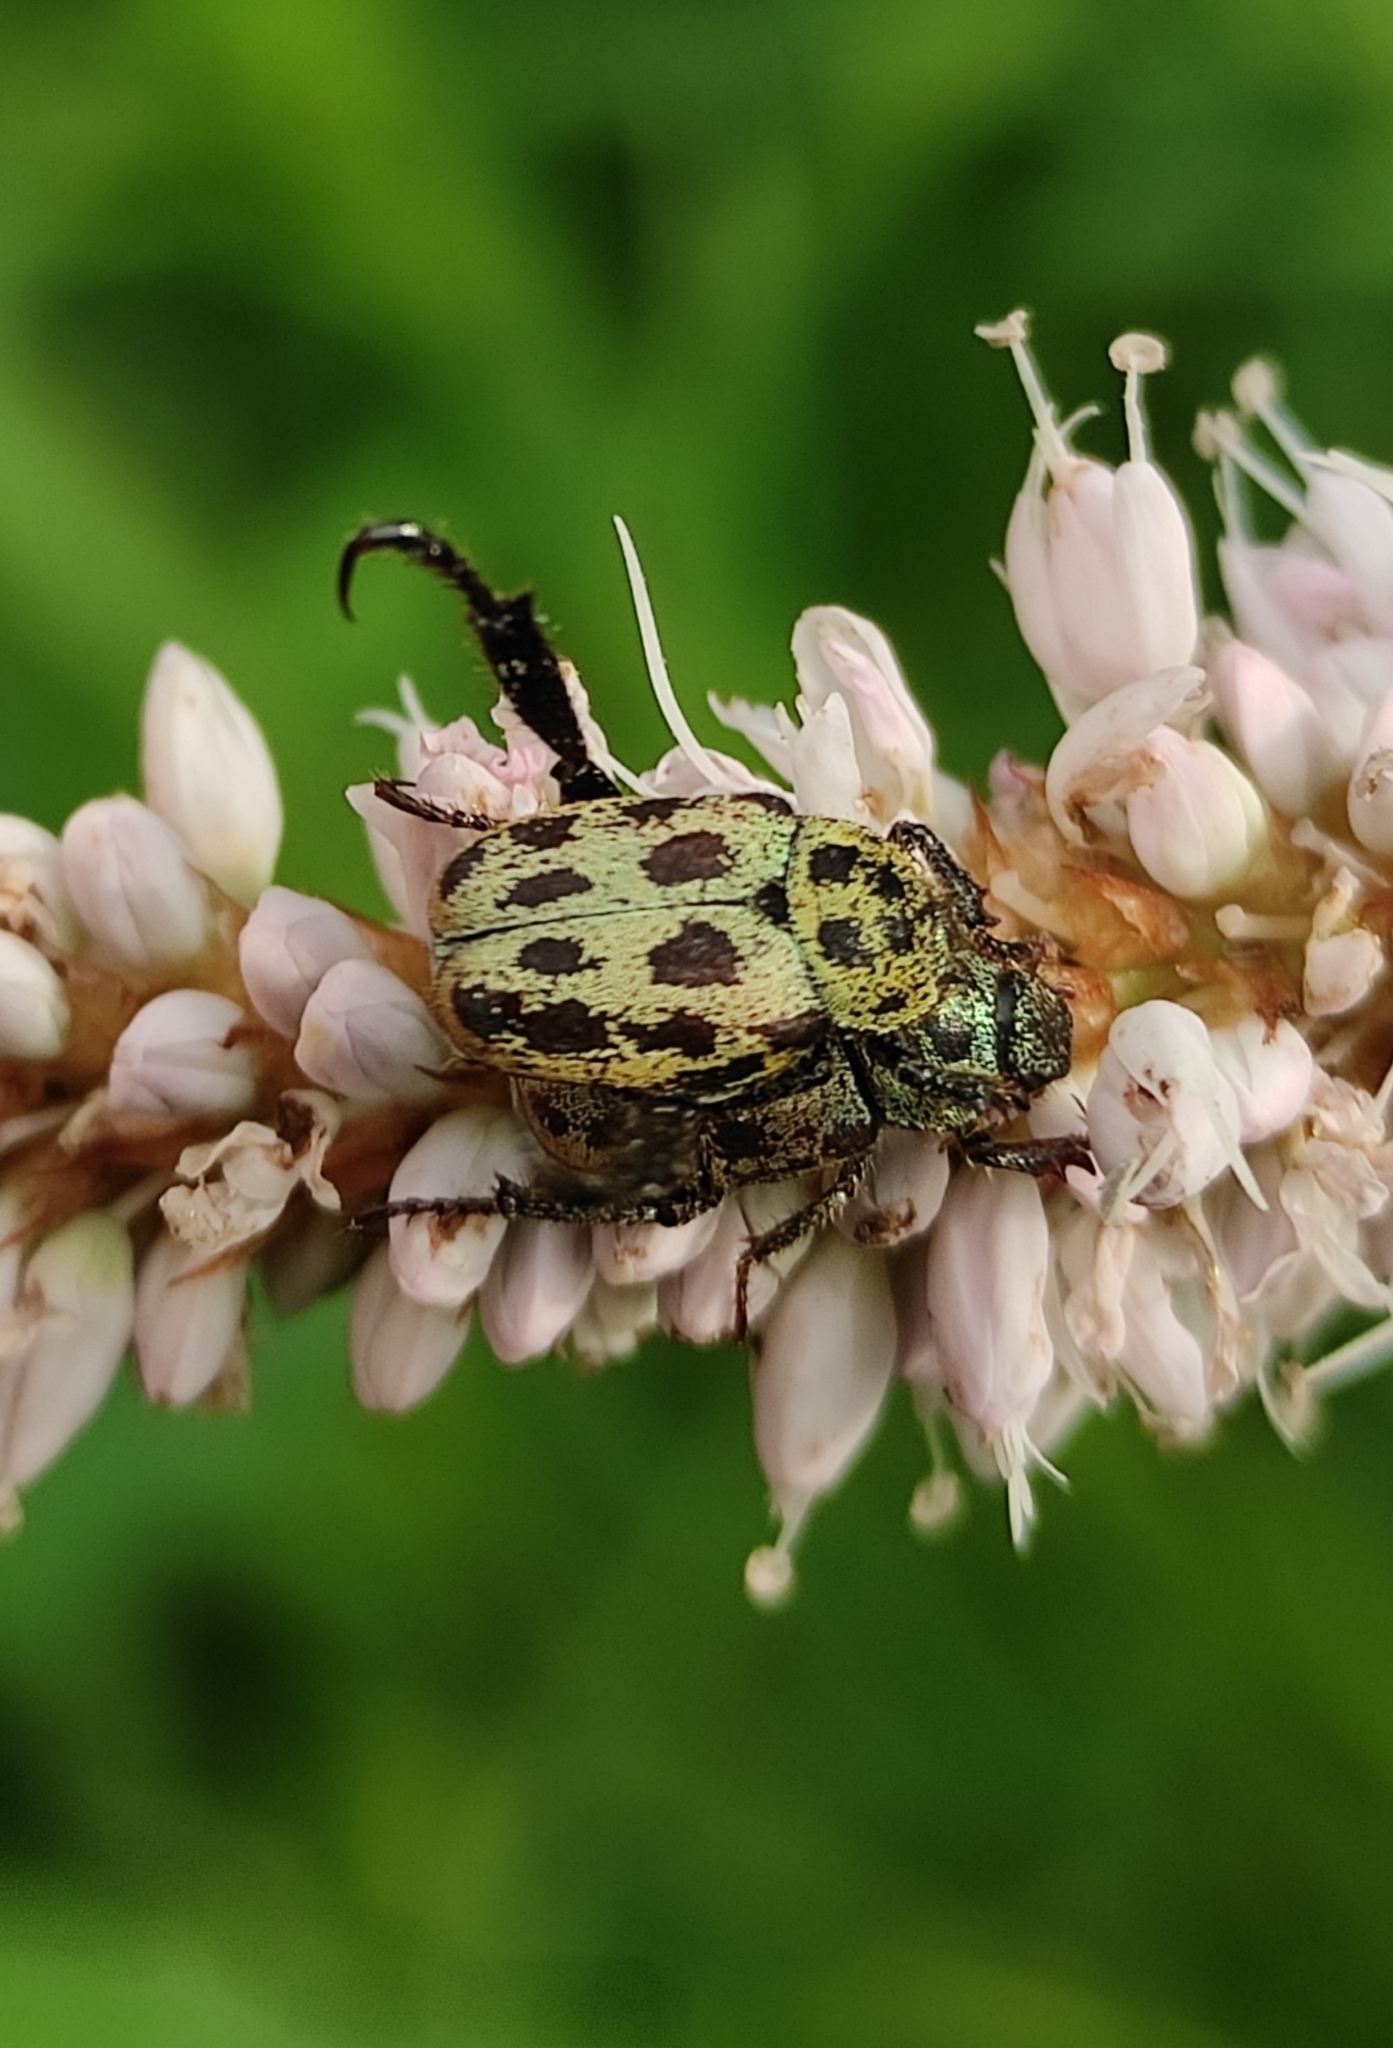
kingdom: Animalia
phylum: Arthropoda
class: Insecta
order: Coleoptera
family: Scarabaeidae
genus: Hoplia
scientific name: Hoplia aureola
